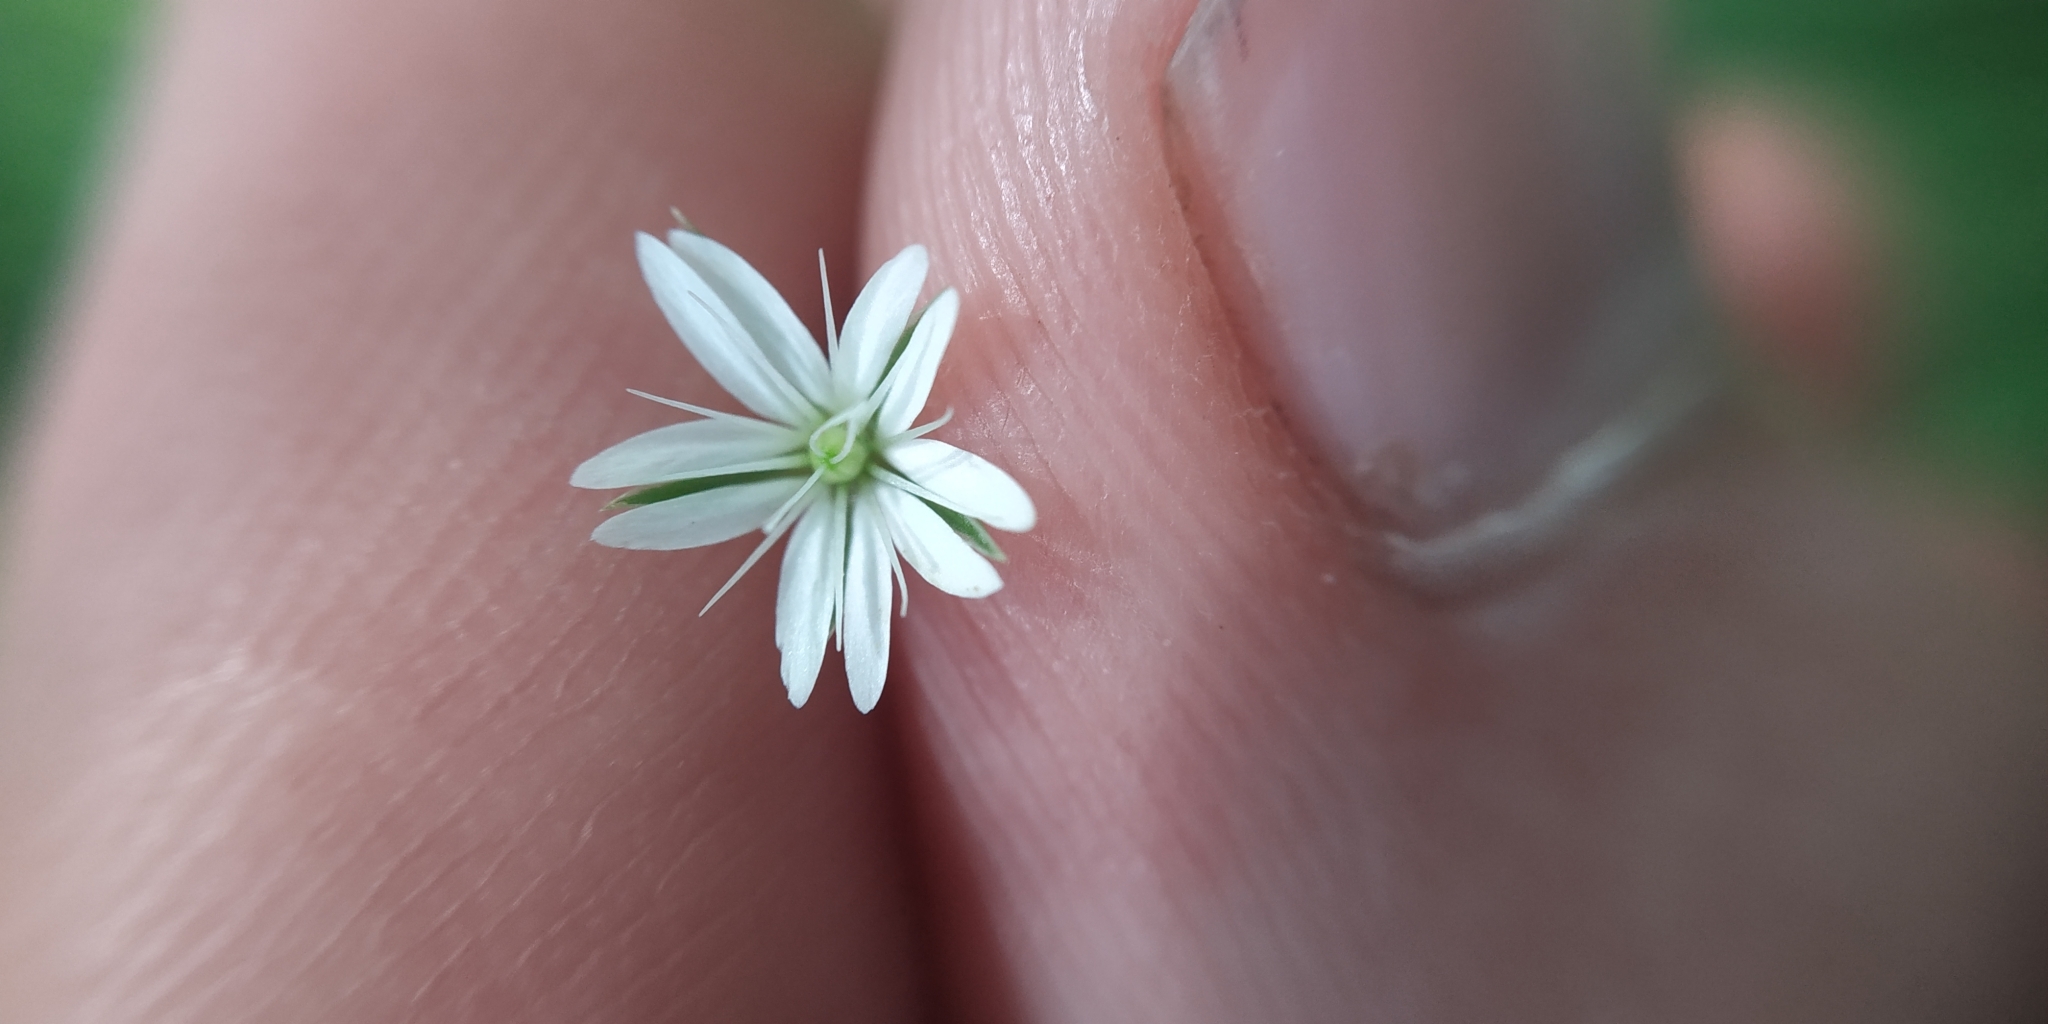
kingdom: Plantae
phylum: Tracheophyta
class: Magnoliopsida
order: Caryophyllales
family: Caryophyllaceae
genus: Stellaria
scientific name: Stellaria graminea
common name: Grass-like starwort
